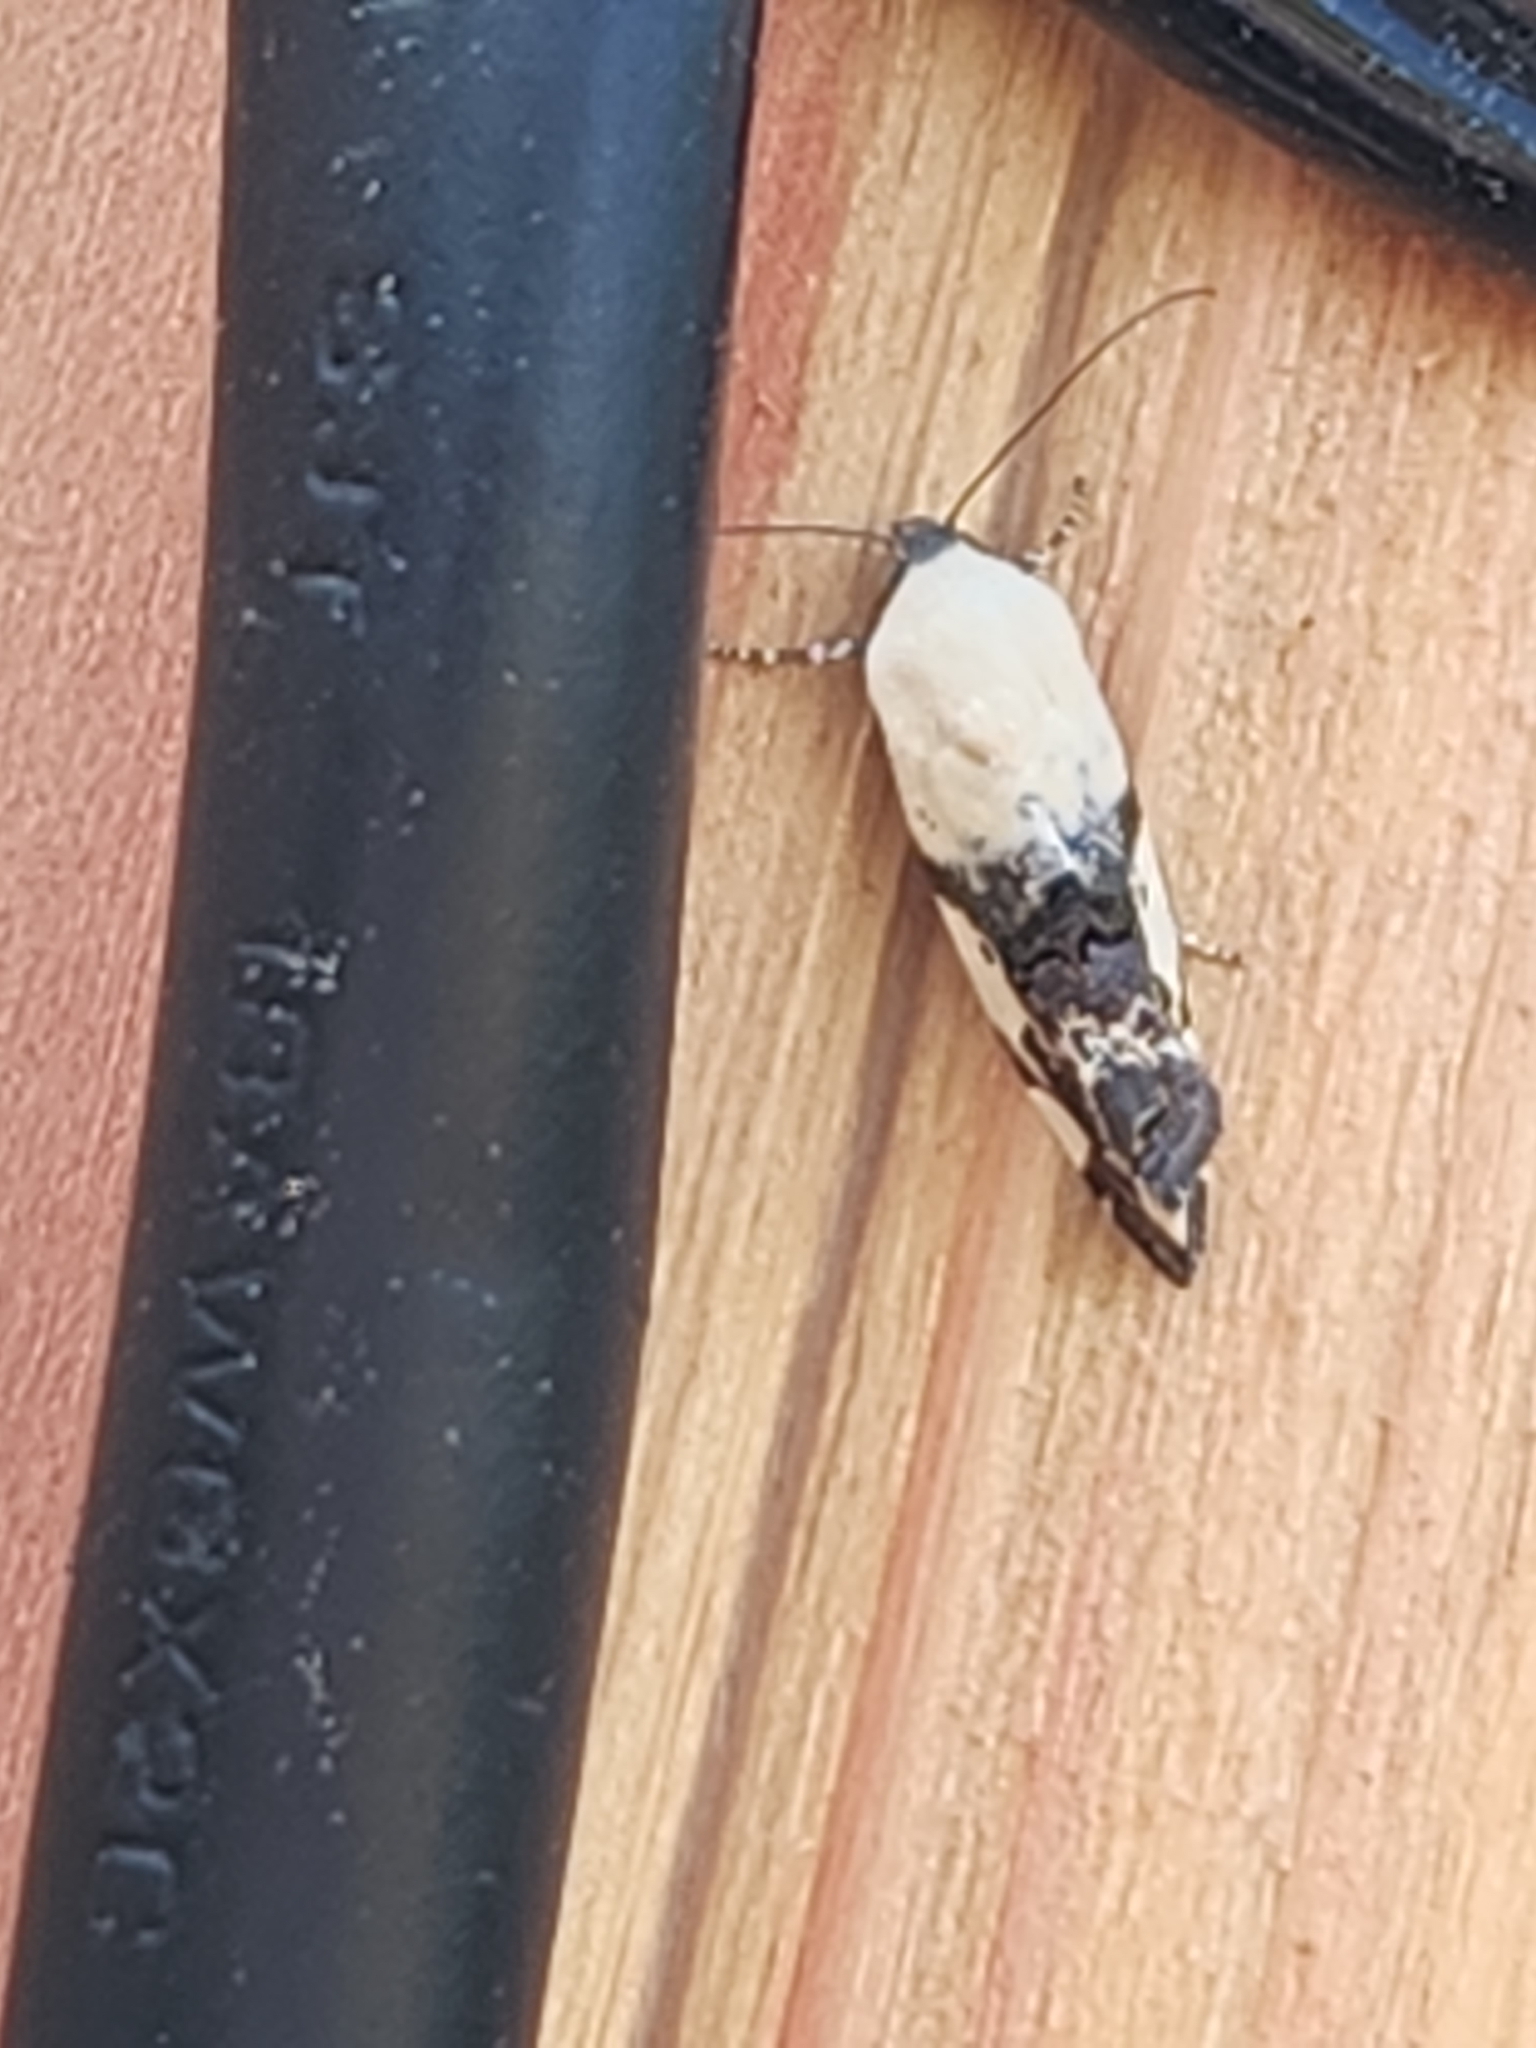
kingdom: Animalia
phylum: Arthropoda
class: Insecta
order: Lepidoptera
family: Noctuidae
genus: Acontia
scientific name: Acontia aprica
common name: Nun
